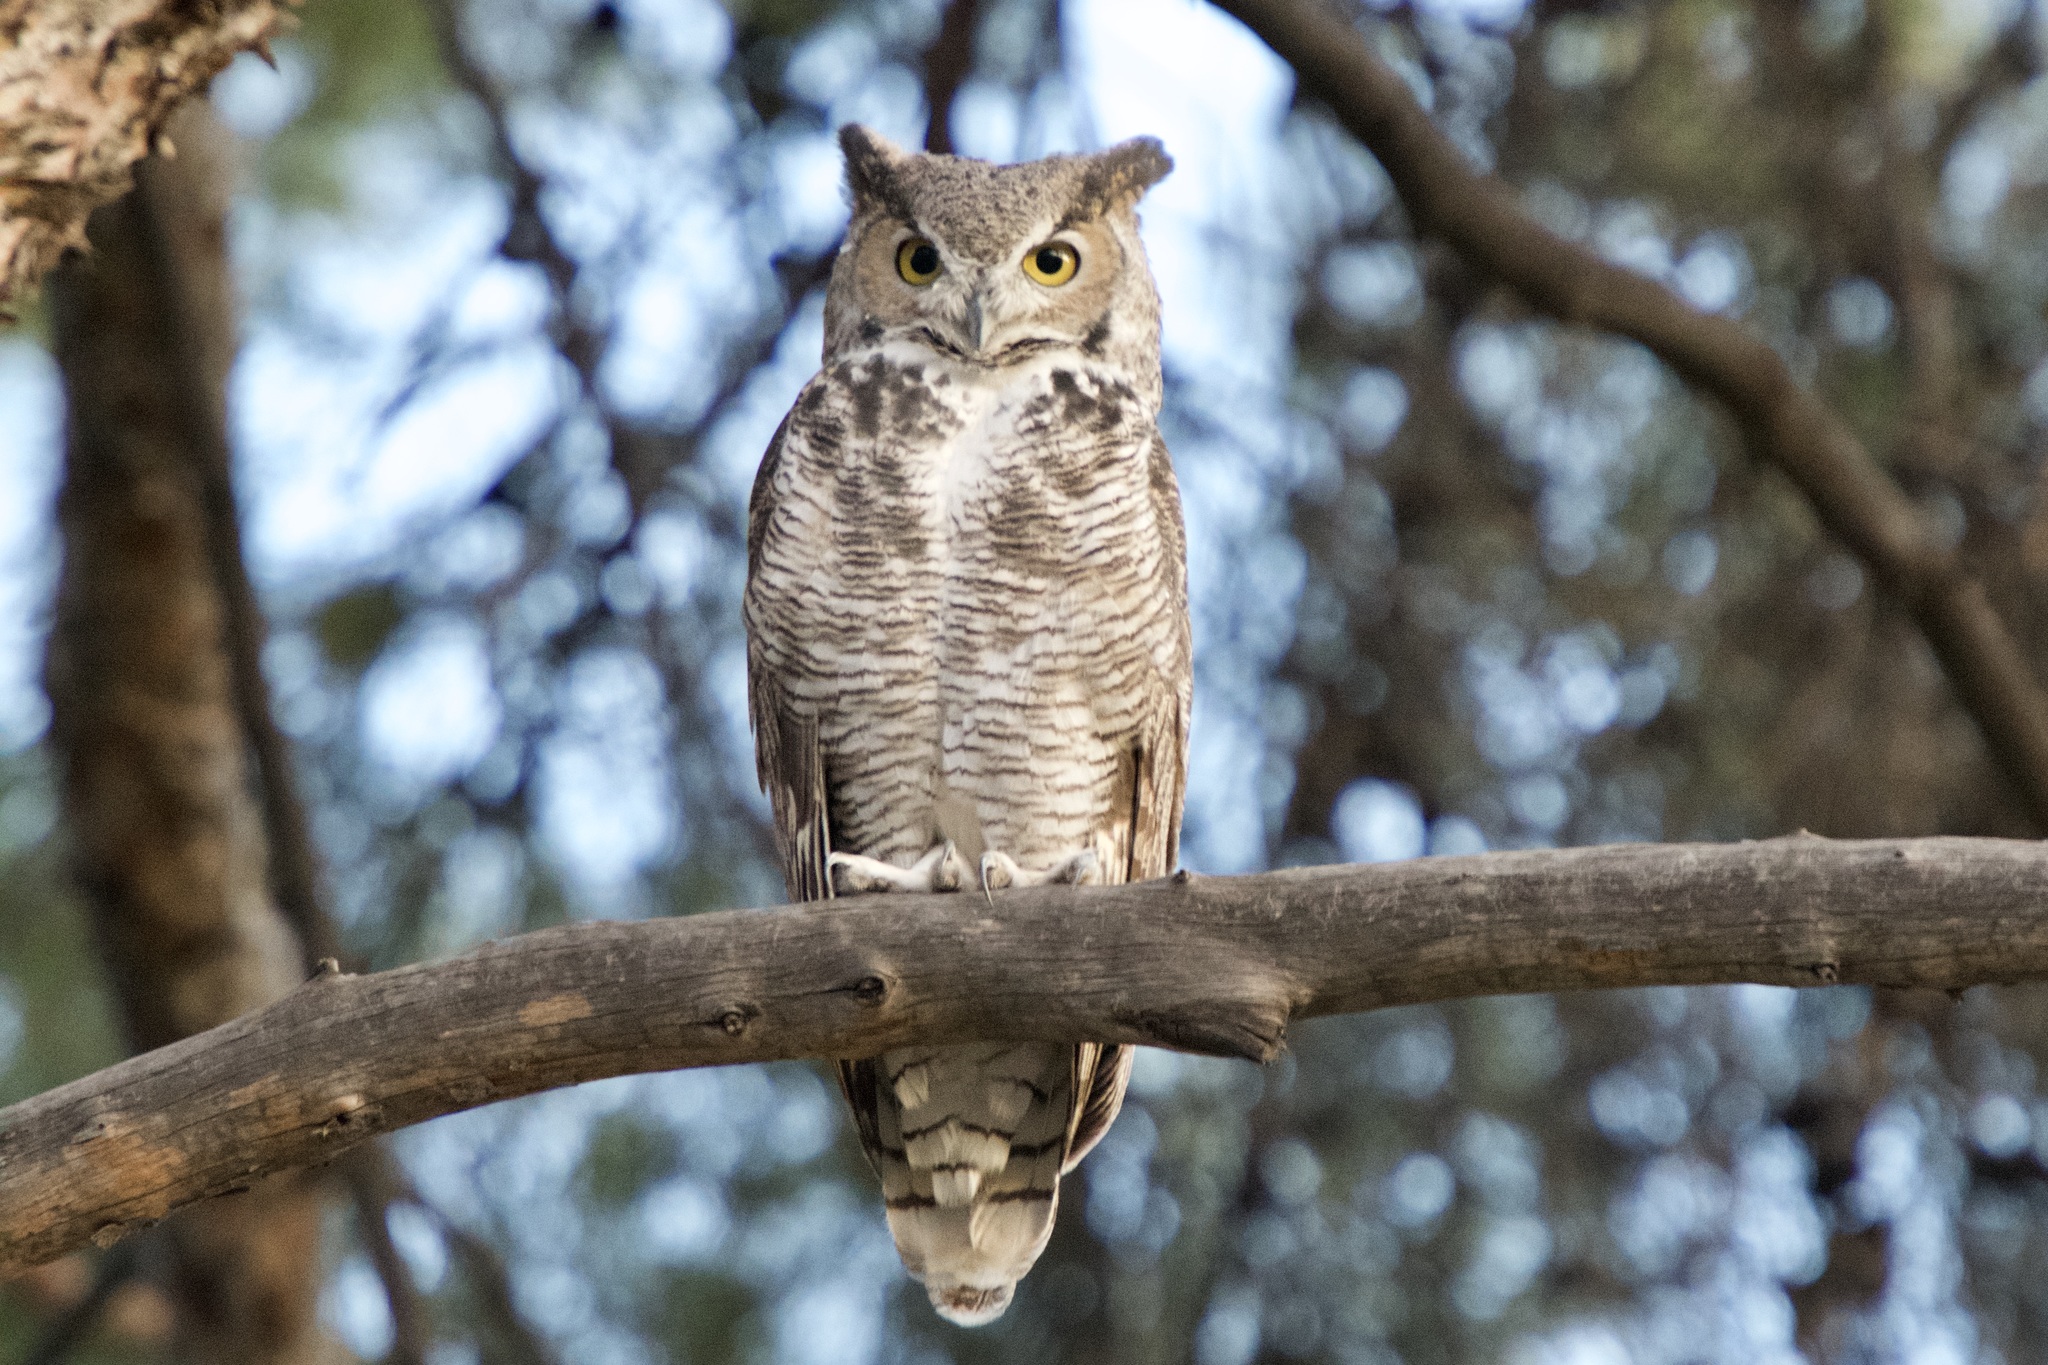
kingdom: Animalia
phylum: Chordata
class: Aves
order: Strigiformes
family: Strigidae
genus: Bubo
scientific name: Bubo virginianus
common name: Great horned owl
